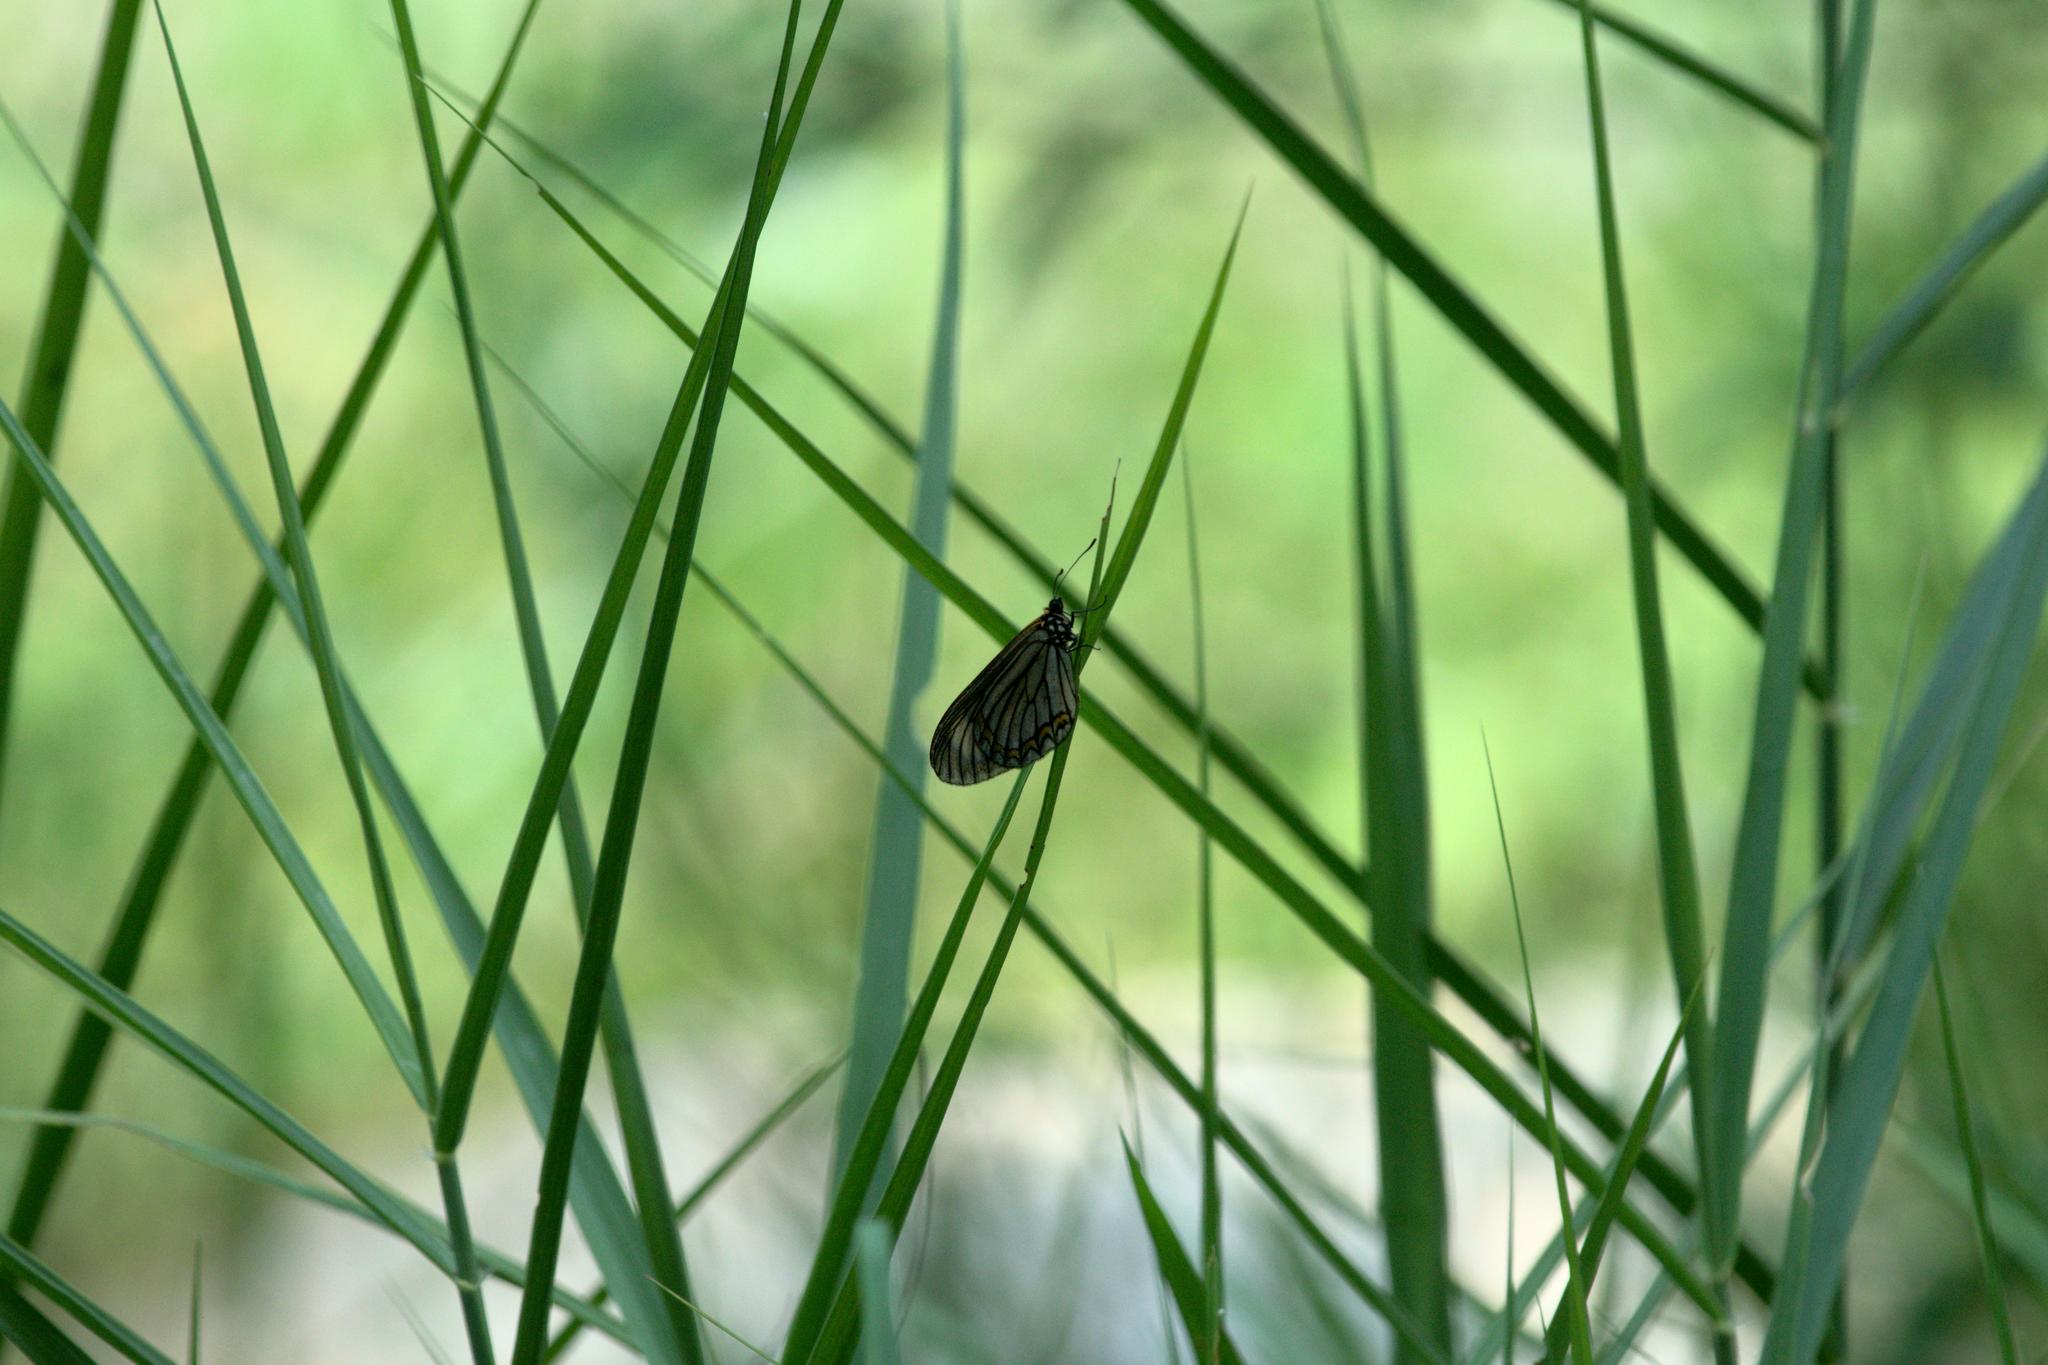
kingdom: Animalia
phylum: Arthropoda
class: Insecta
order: Lepidoptera
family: Nymphalidae
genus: Acraea
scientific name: Acraea Telchinia issoria
